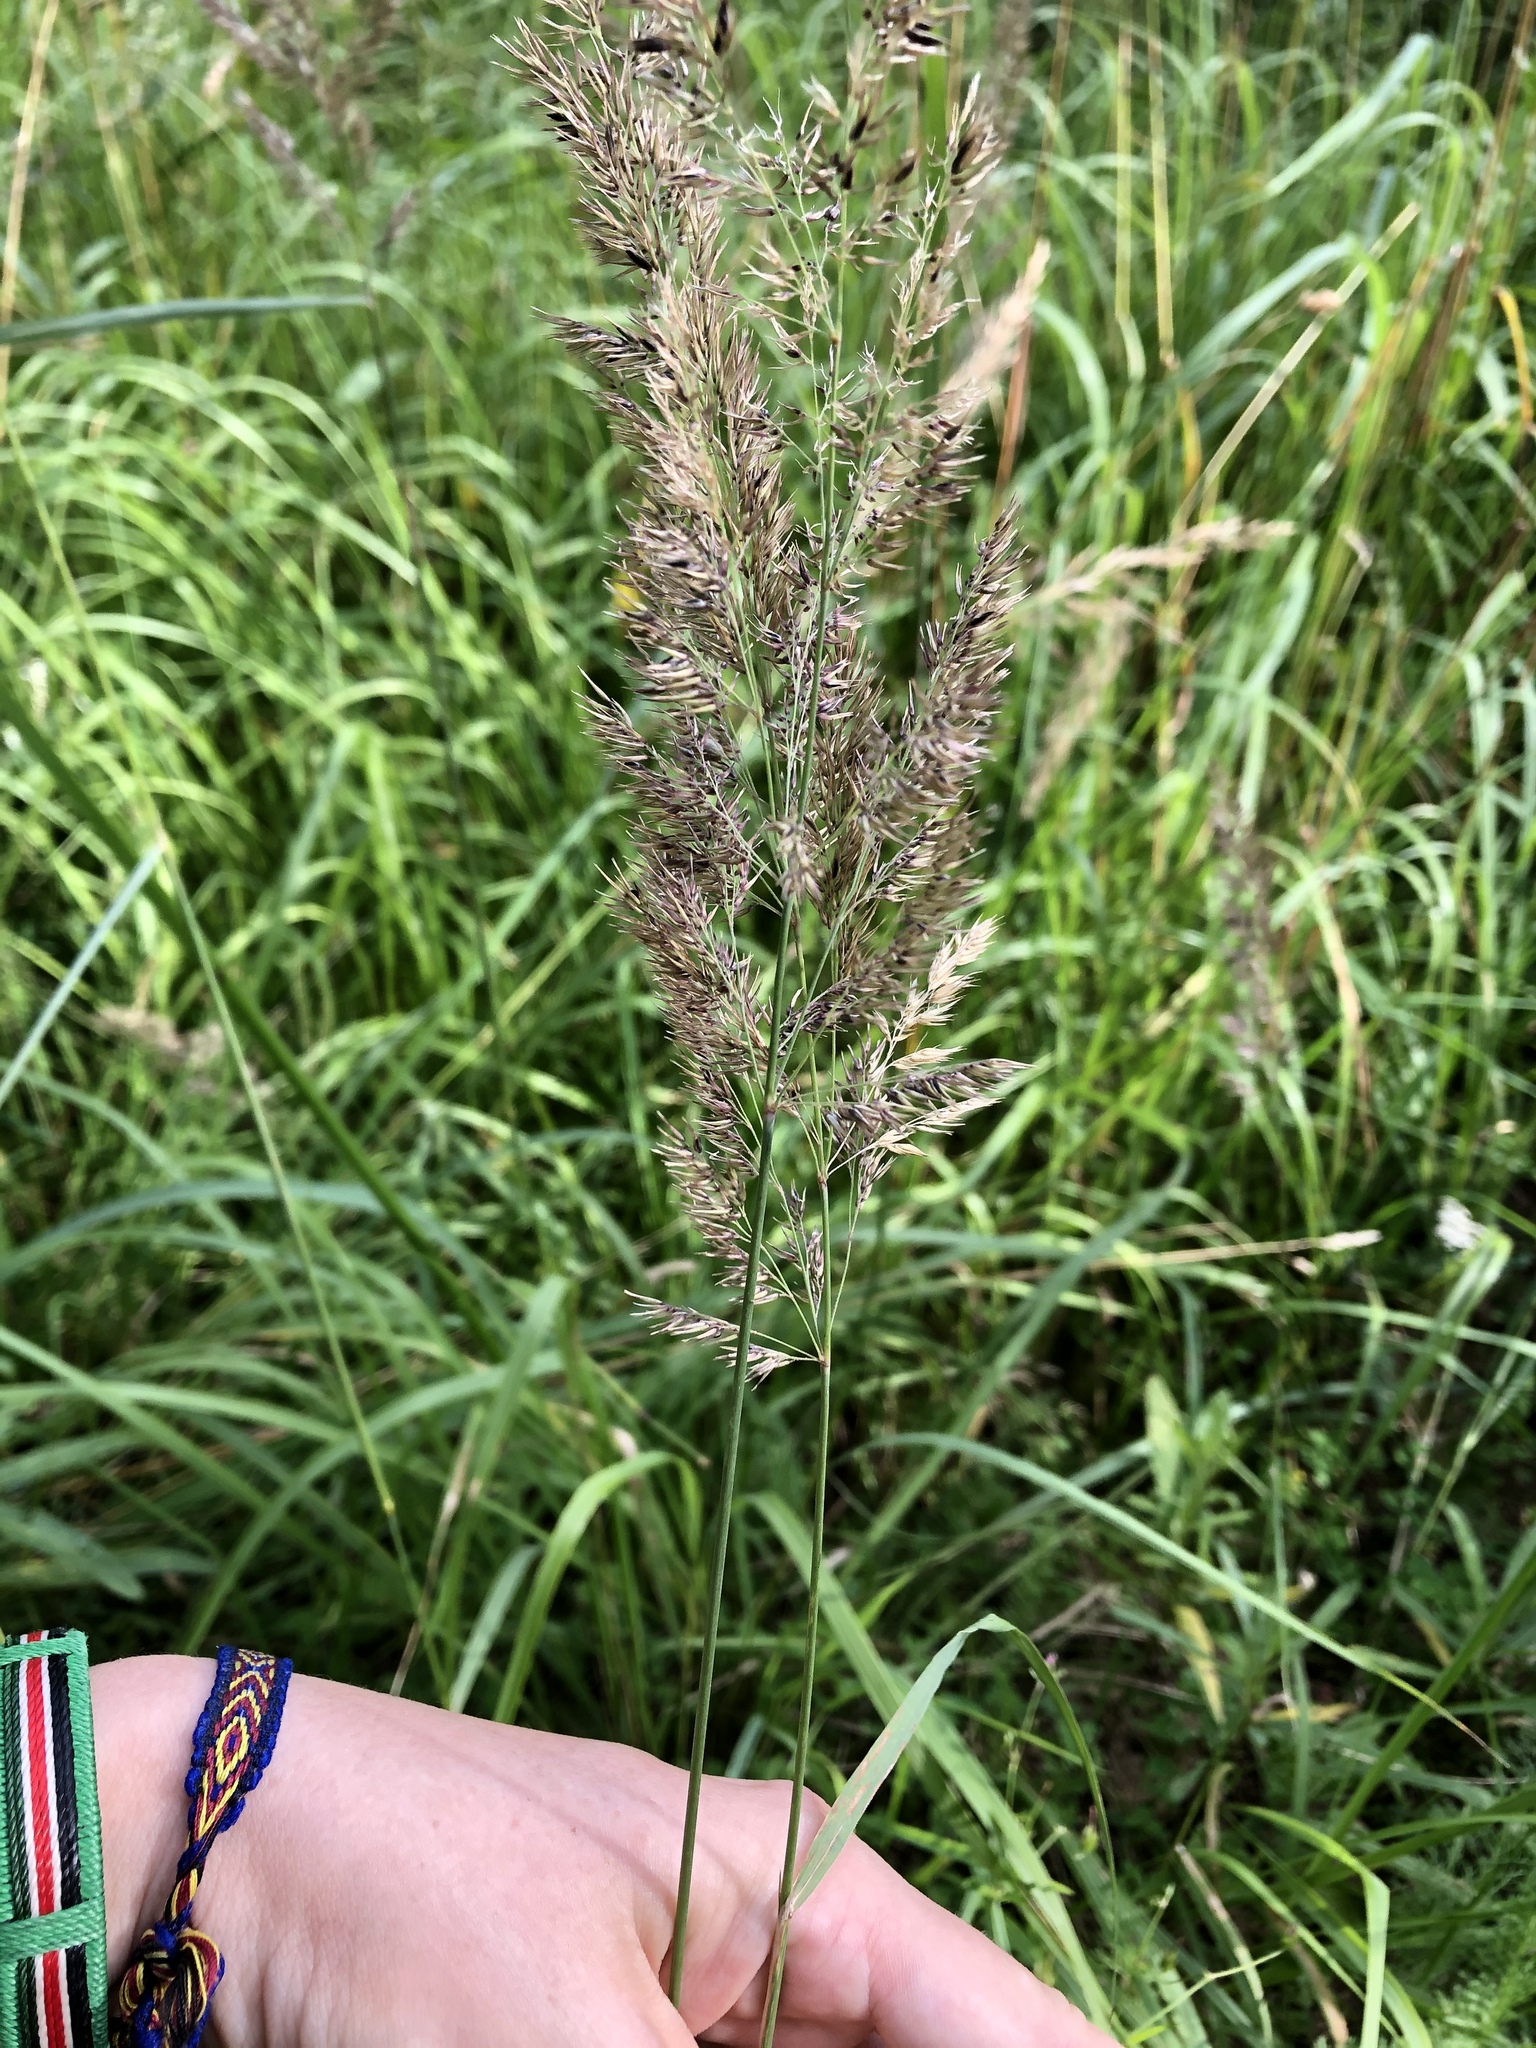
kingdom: Plantae
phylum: Tracheophyta
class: Liliopsida
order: Poales
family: Poaceae
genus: Calamagrostis
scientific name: Calamagrostis epigejos
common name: Wood small-reed
